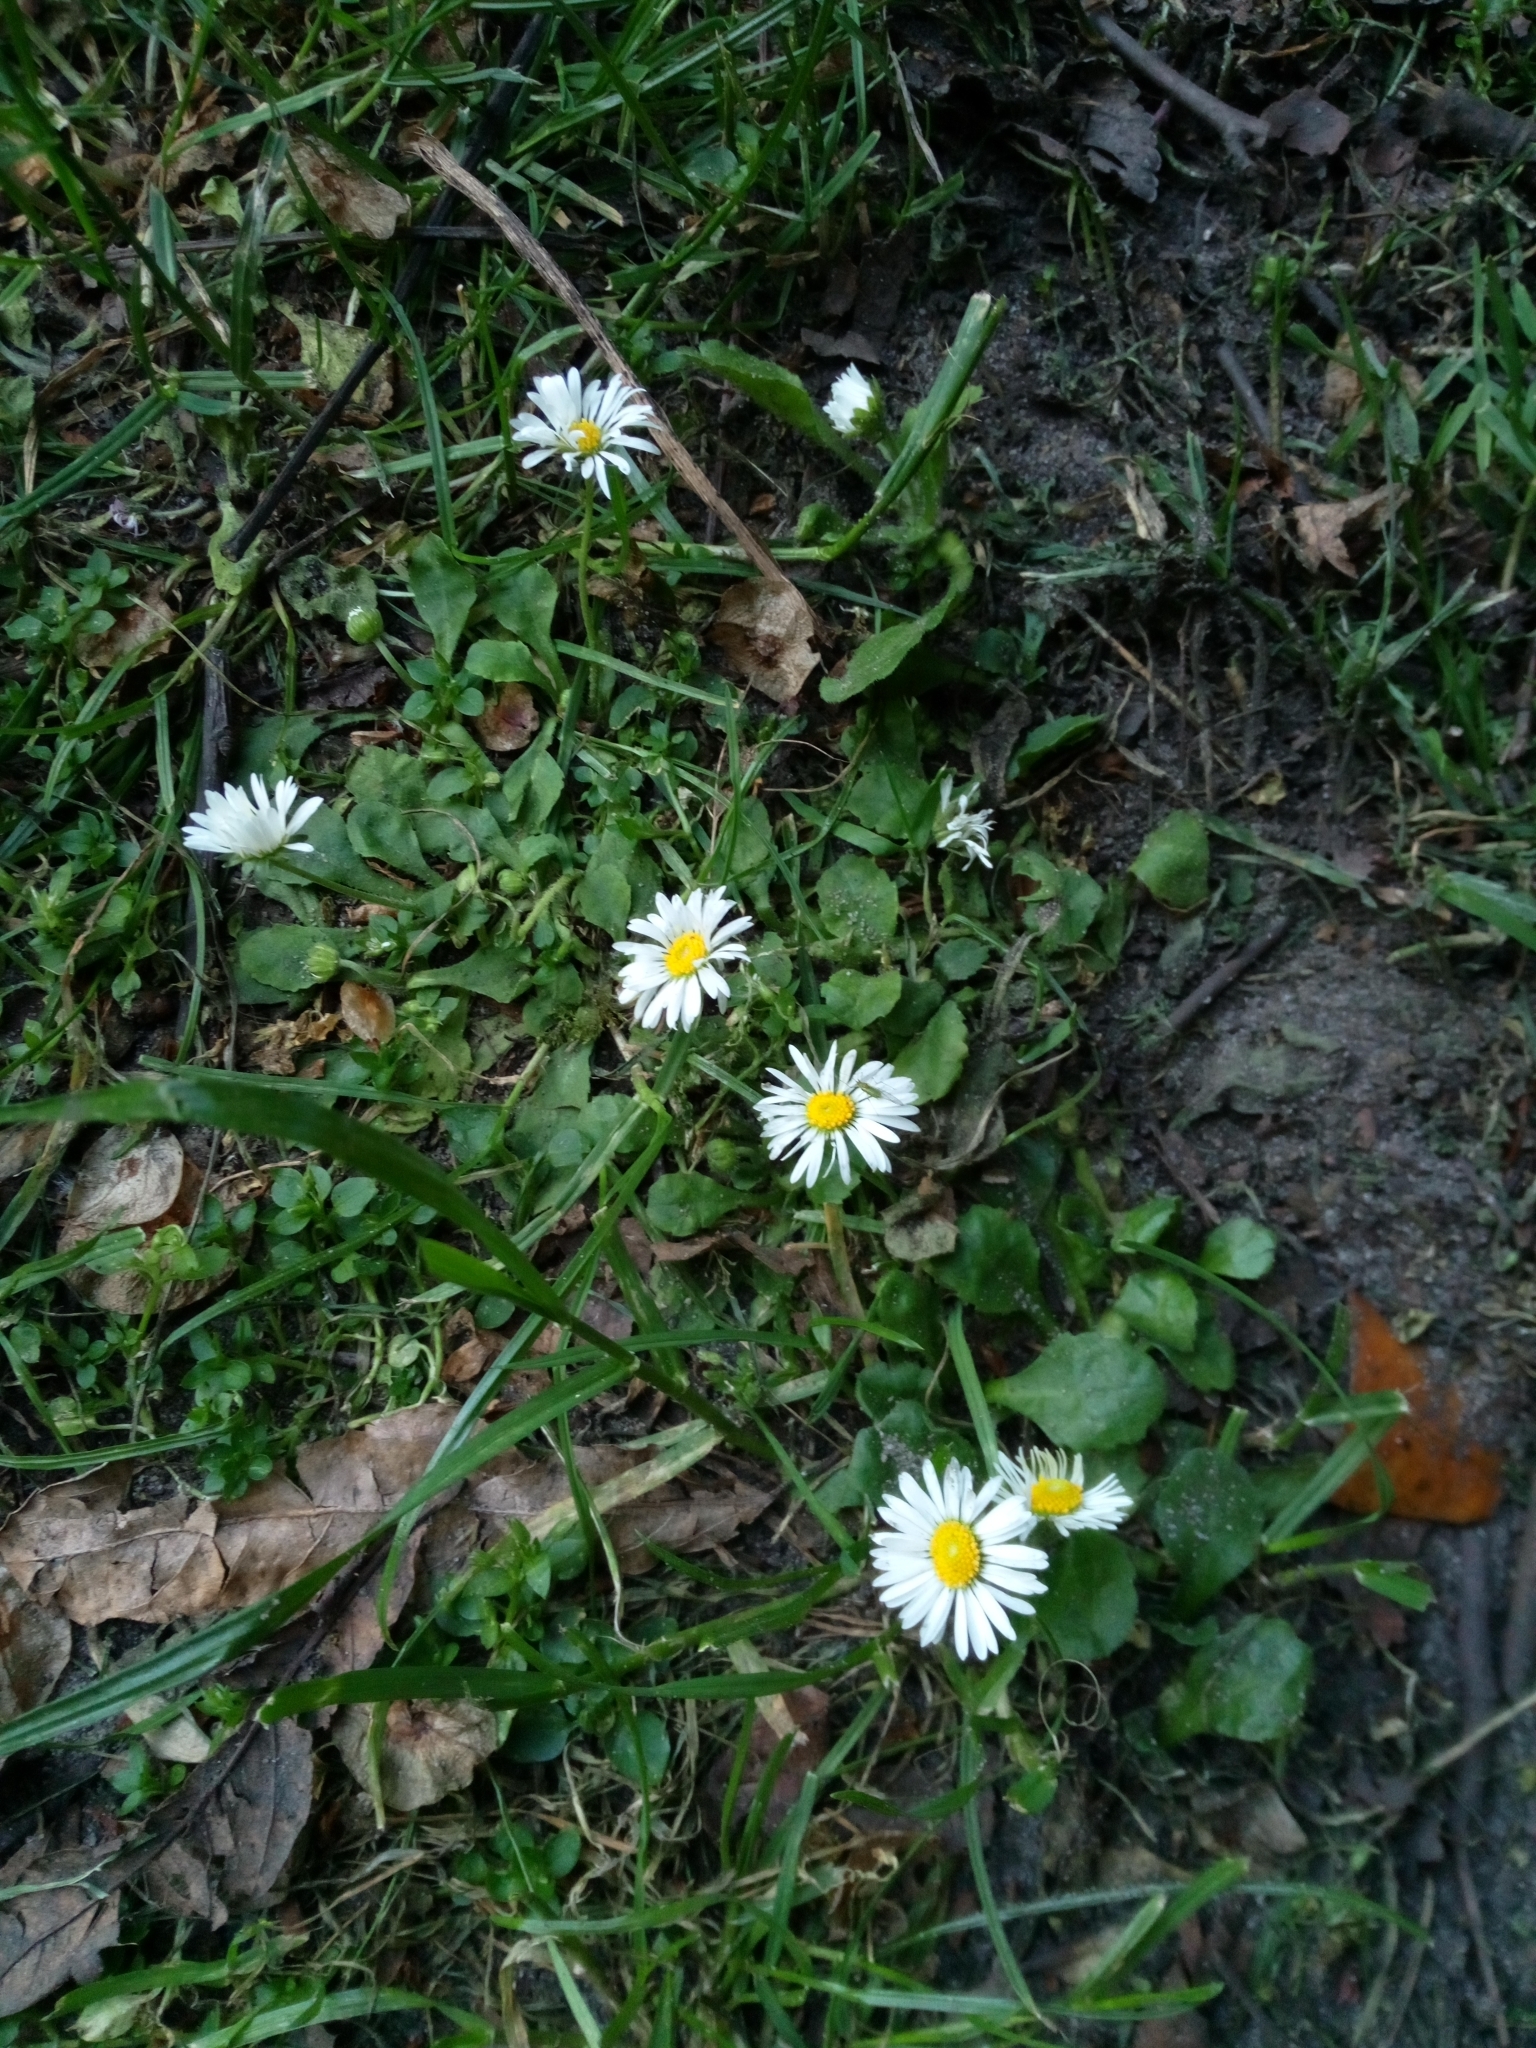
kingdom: Plantae
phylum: Tracheophyta
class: Magnoliopsida
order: Asterales
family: Asteraceae
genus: Bellis
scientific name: Bellis perennis
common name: Lawndaisy
